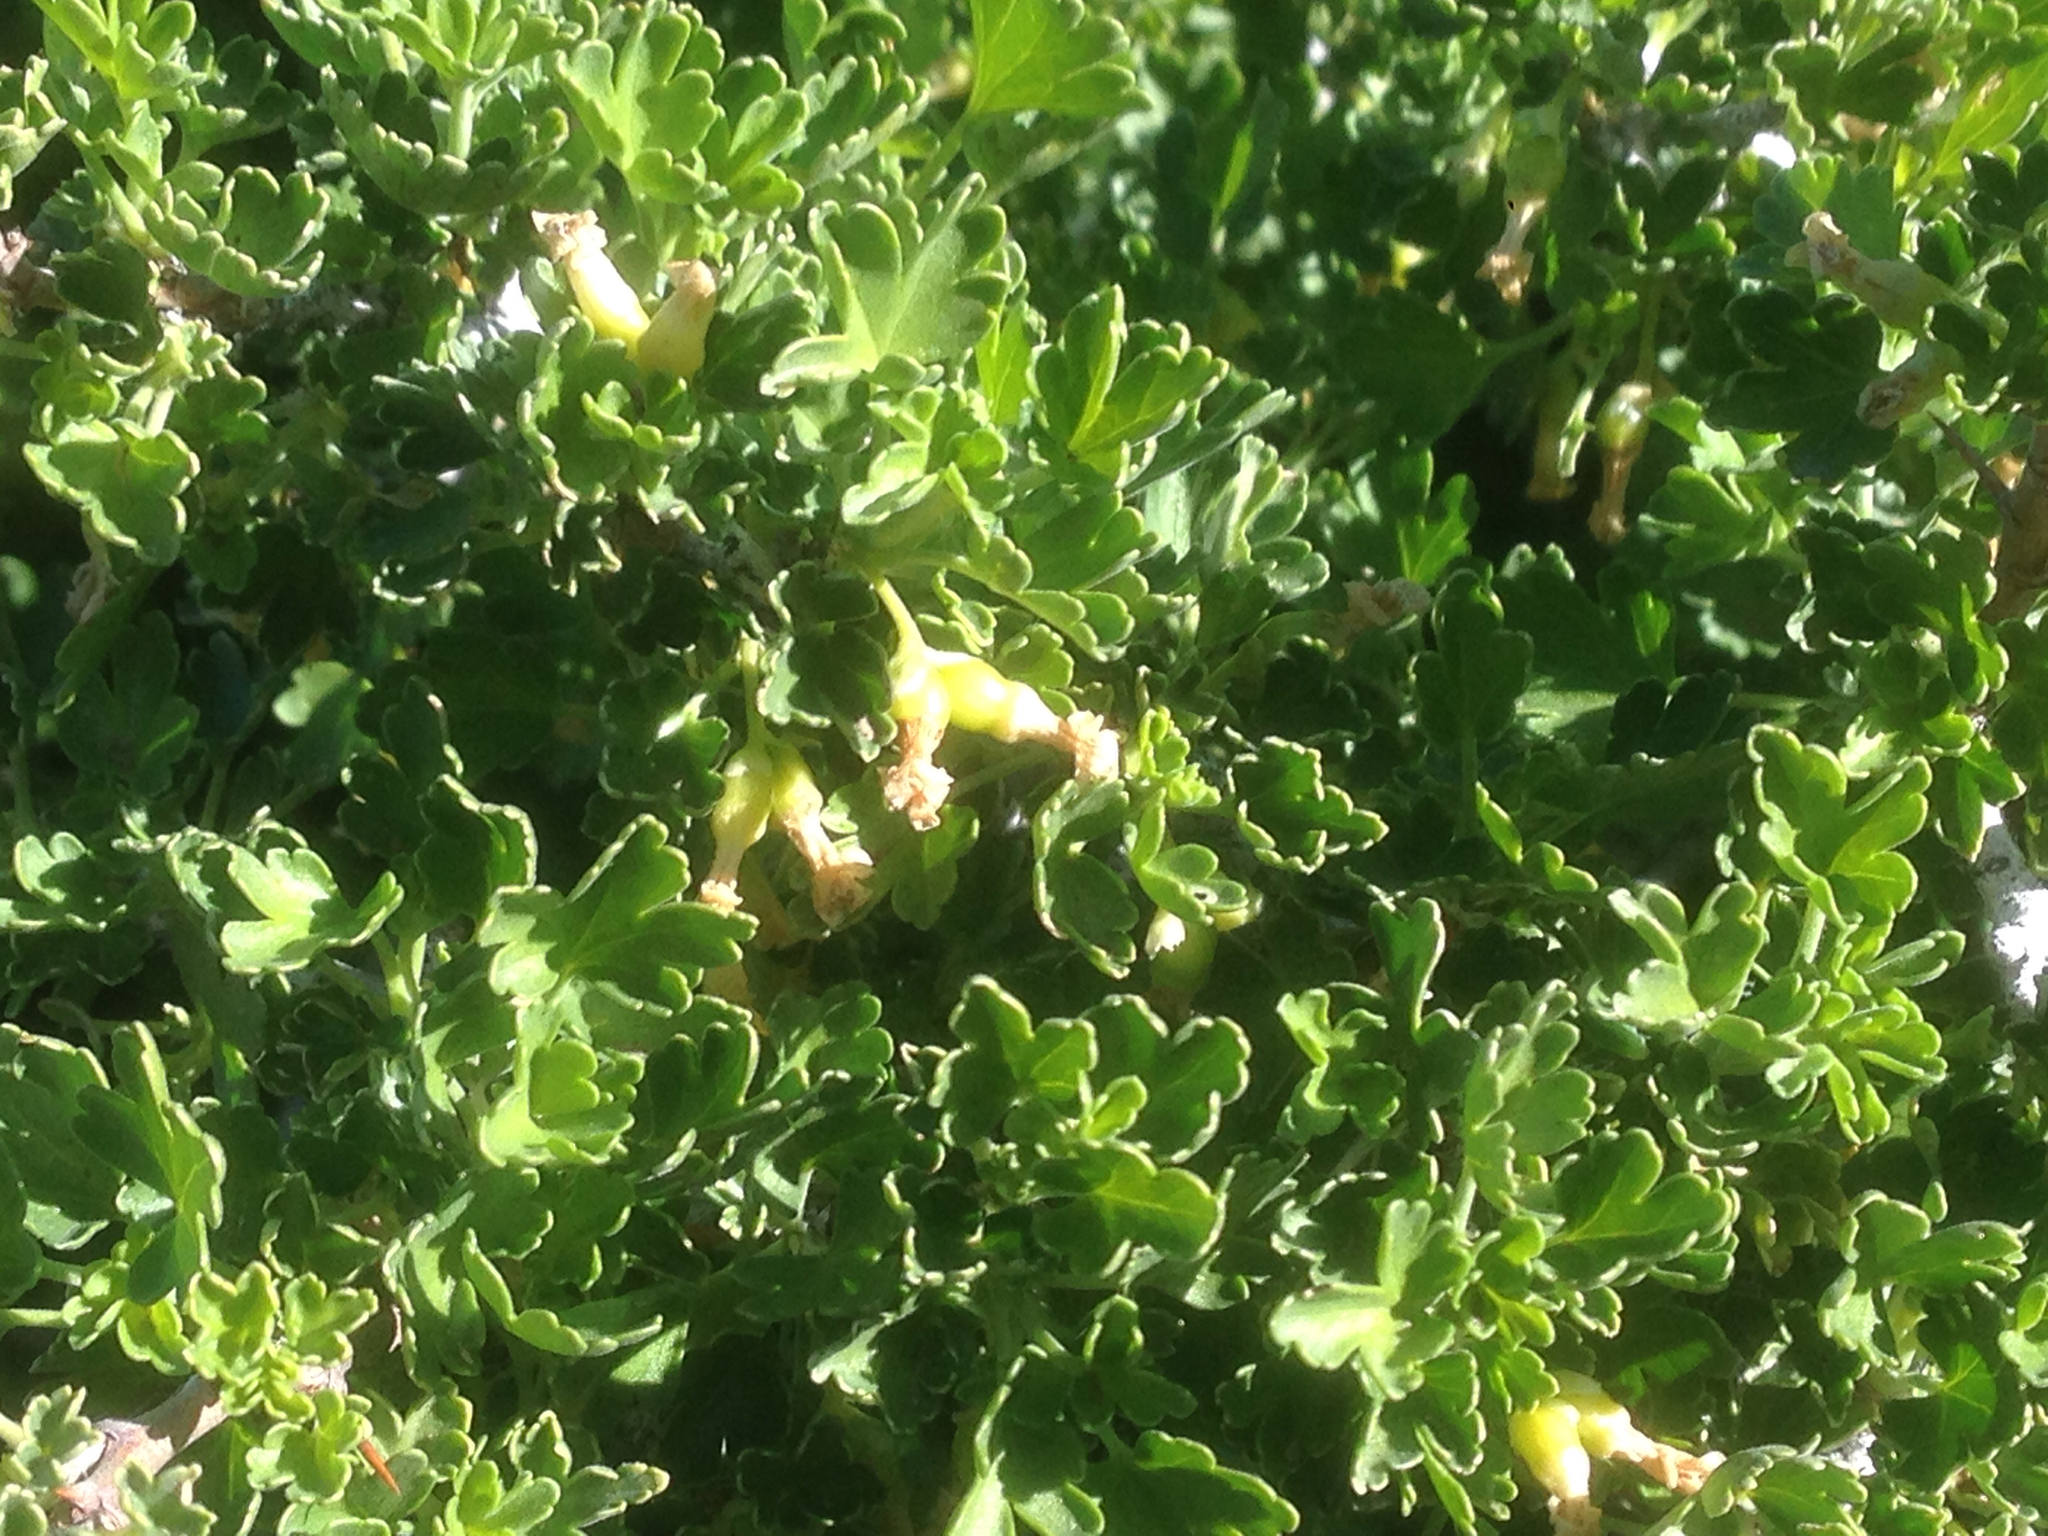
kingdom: Plantae
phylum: Tracheophyta
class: Magnoliopsida
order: Saxifragales
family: Grossulariaceae
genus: Ribes
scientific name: Ribes quercetorum
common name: Oak gooseberry
